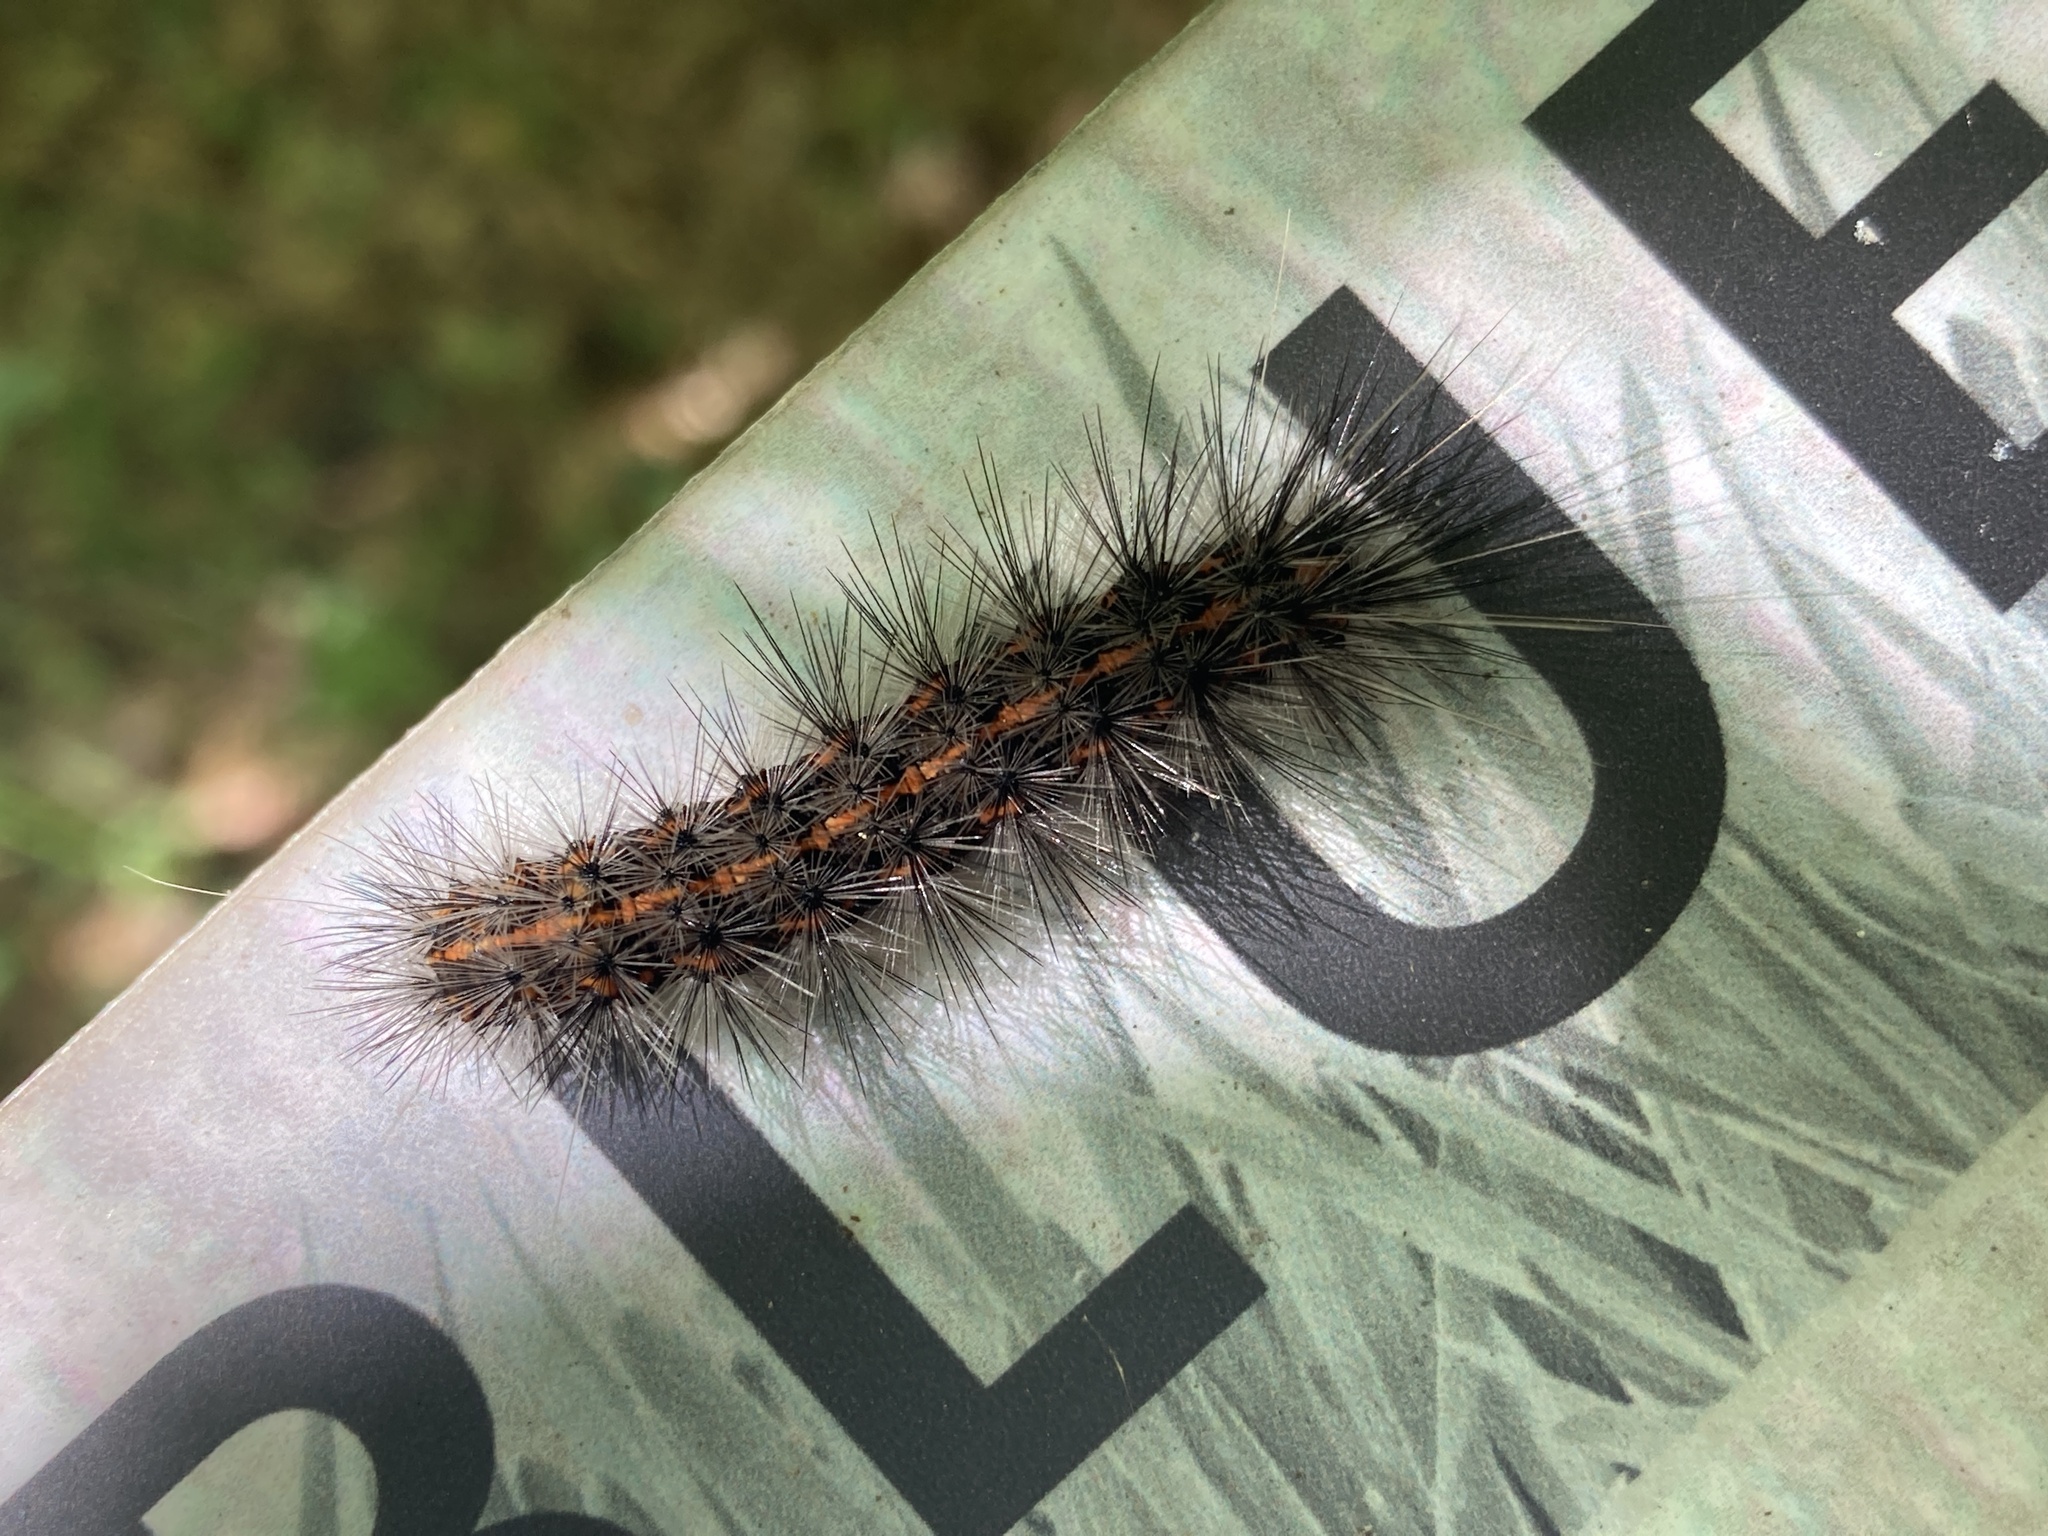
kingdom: Animalia
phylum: Arthropoda
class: Insecta
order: Lepidoptera
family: Erebidae
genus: Spilosoma
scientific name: Spilosoma dubia
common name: Dubious tiger moth
